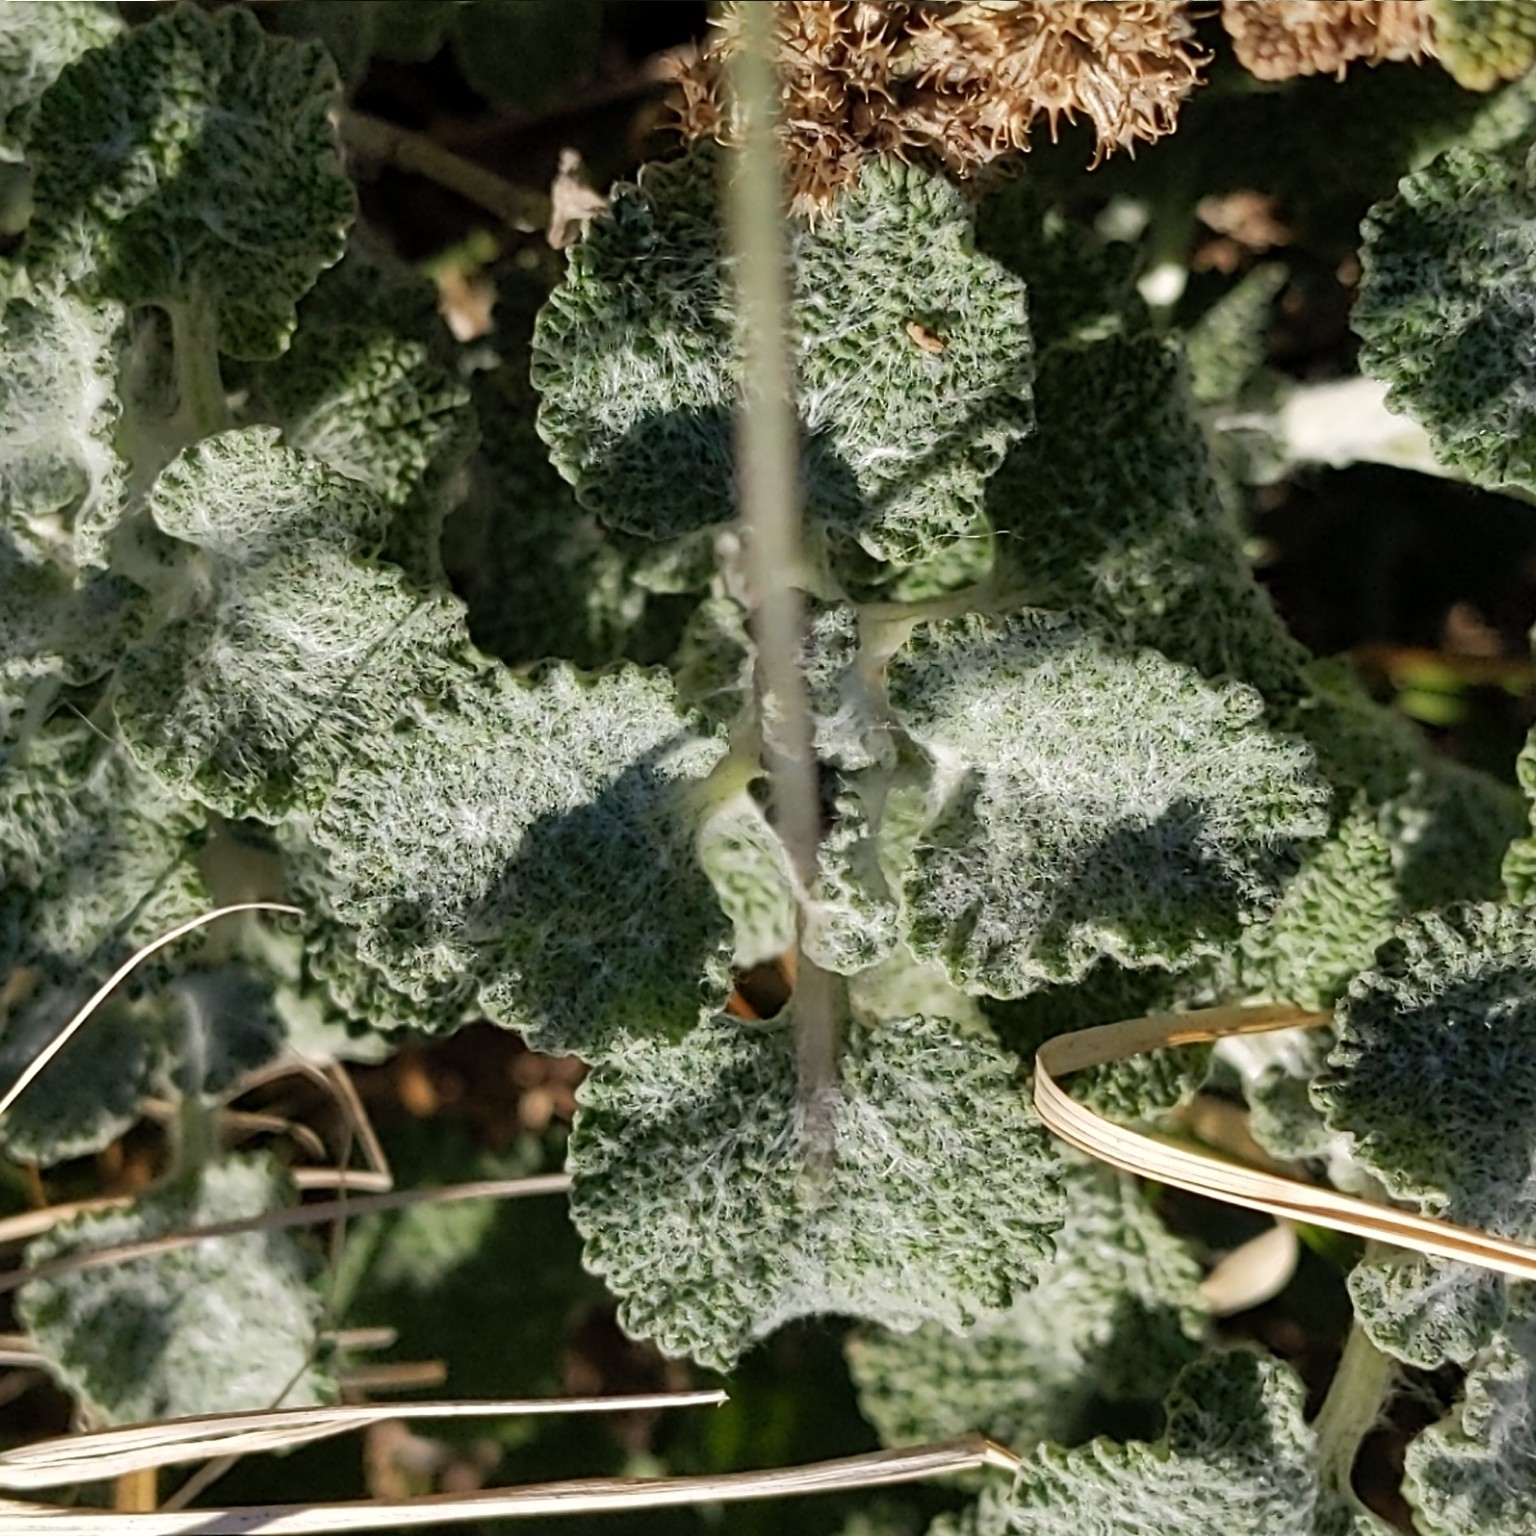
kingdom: Plantae
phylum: Tracheophyta
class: Magnoliopsida
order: Lamiales
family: Lamiaceae
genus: Marrubium
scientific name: Marrubium vulgare
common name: Horehound
